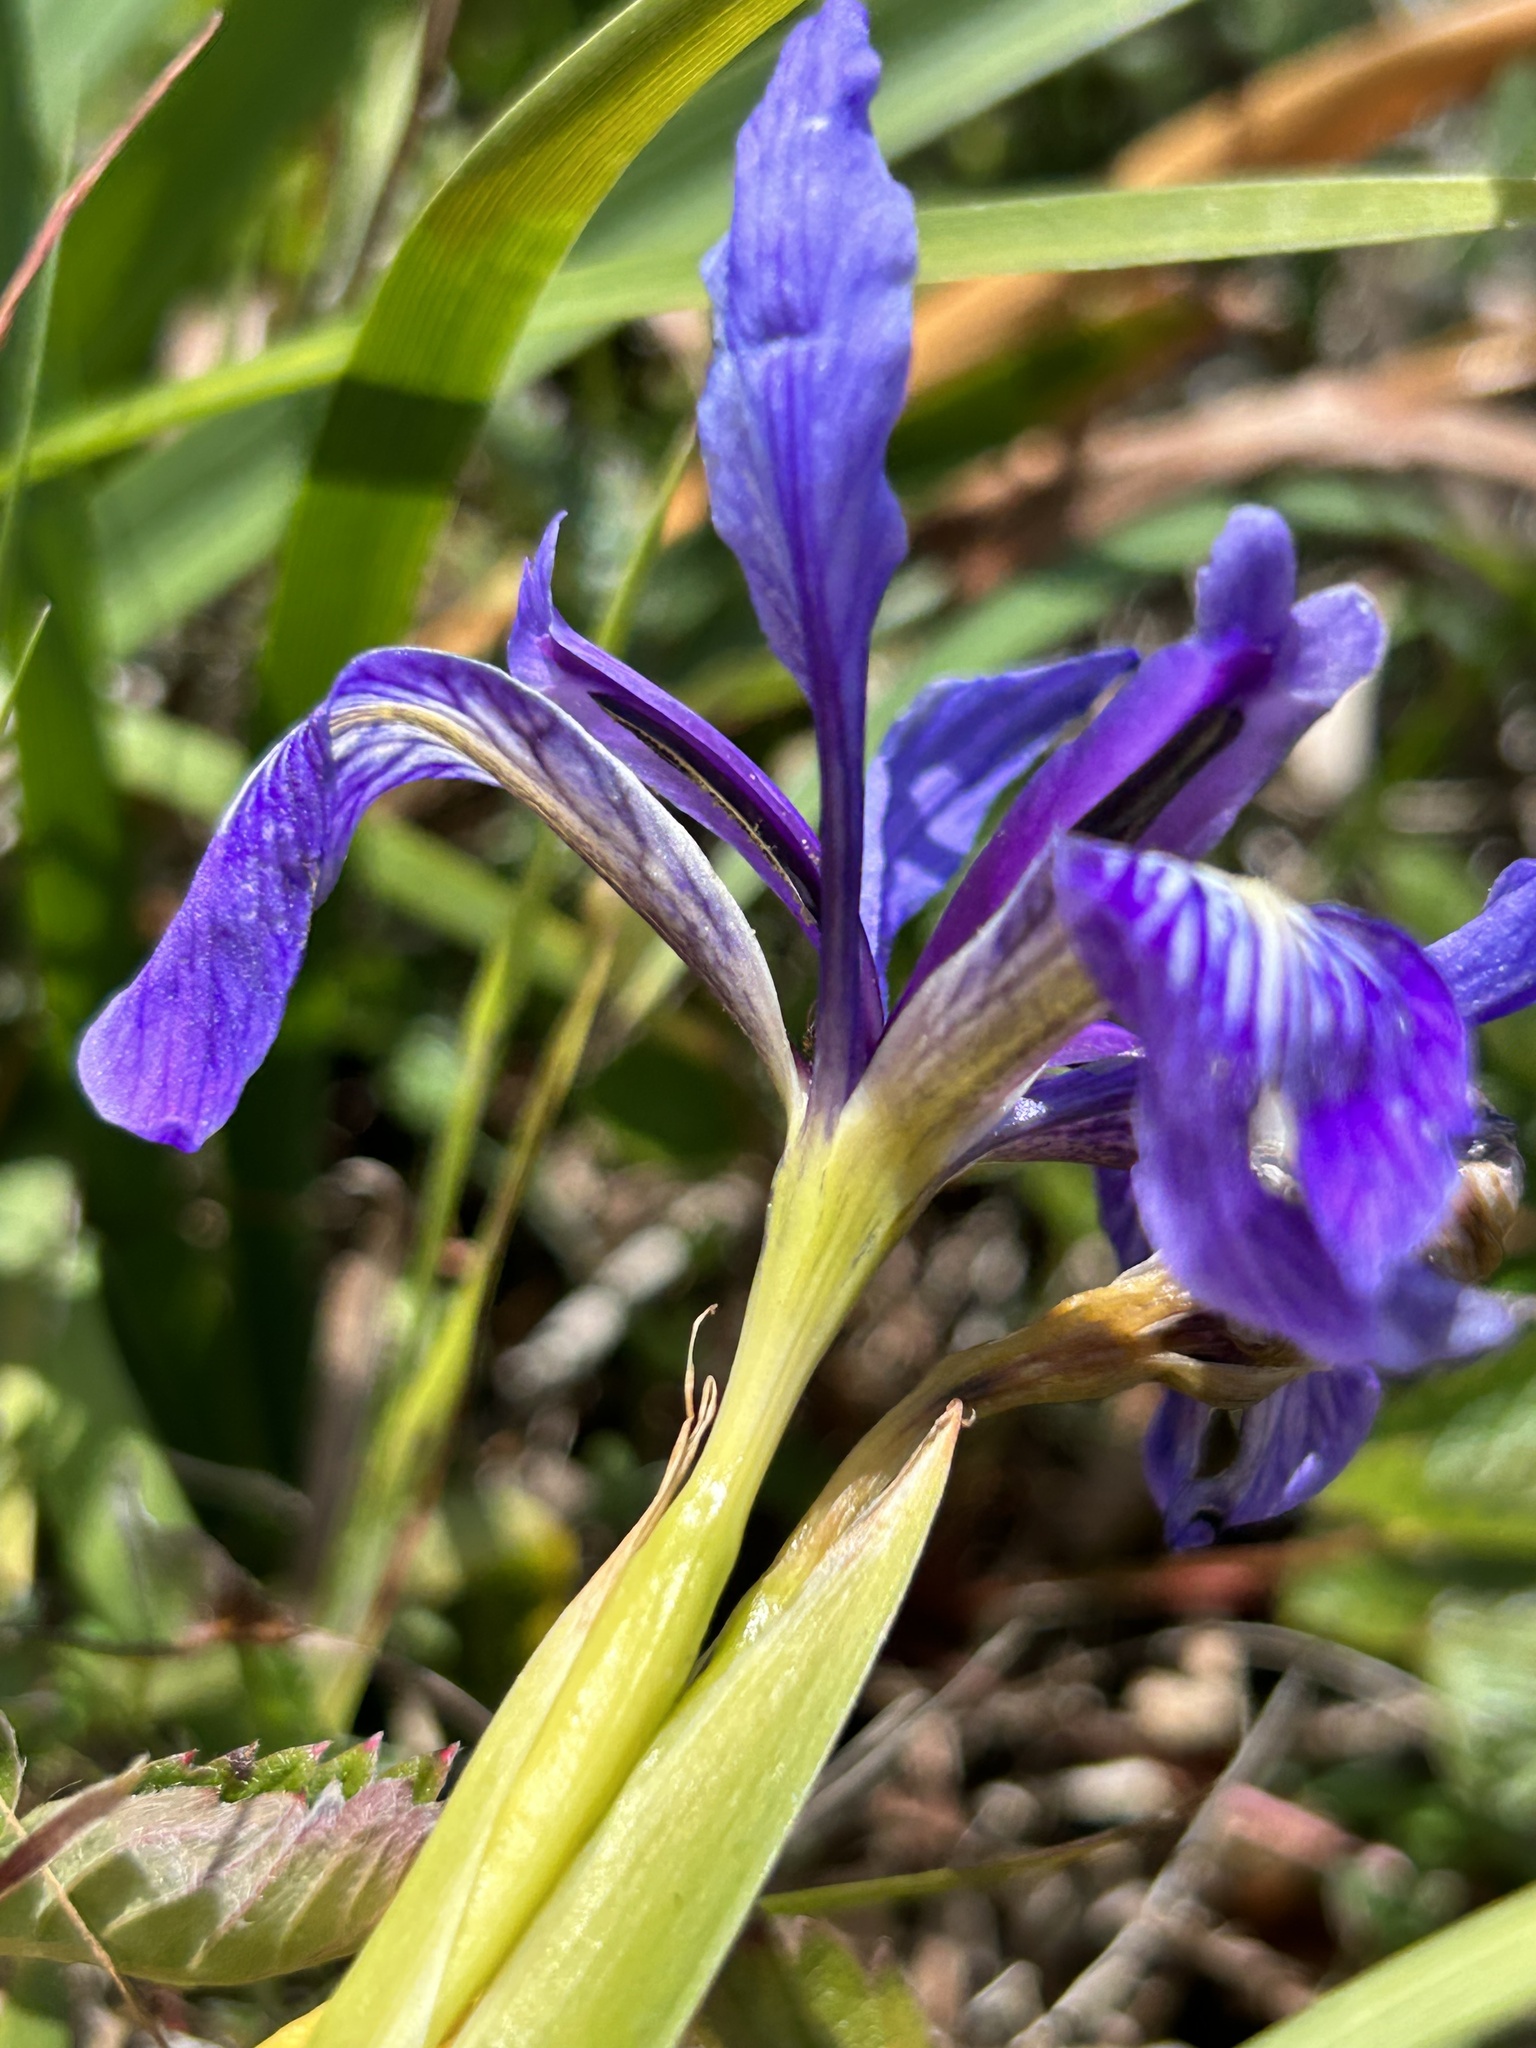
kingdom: Plantae
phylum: Tracheophyta
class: Liliopsida
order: Asparagales
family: Iridaceae
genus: Iris
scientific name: Iris douglasiana
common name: Marin iris
